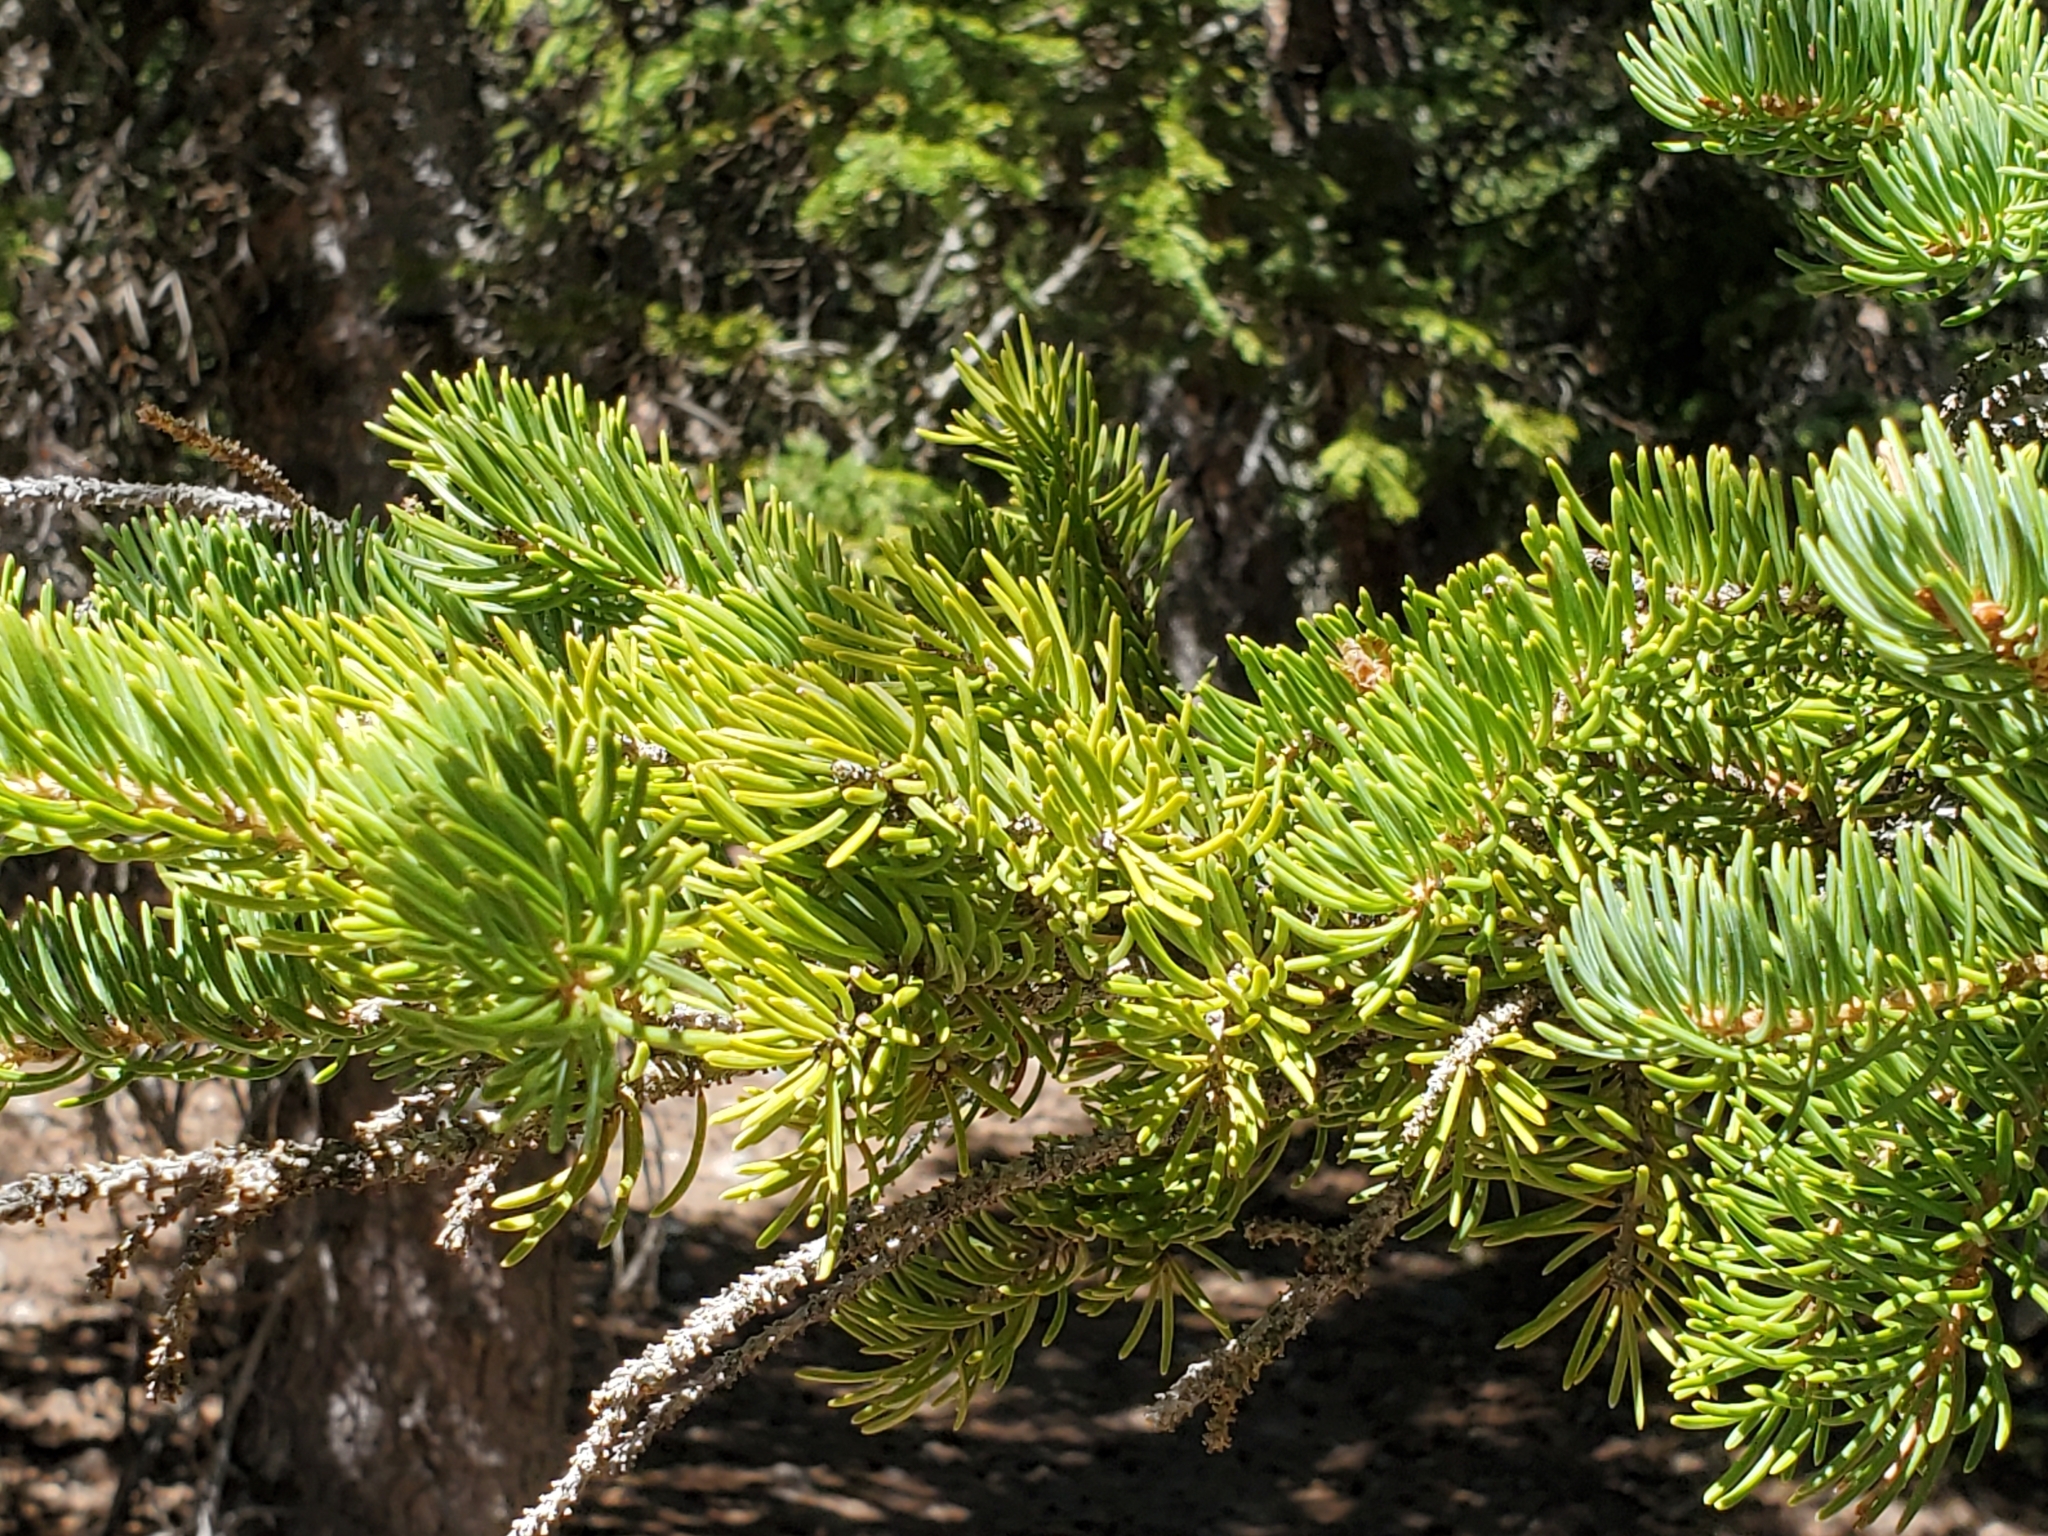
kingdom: Plantae
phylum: Tracheophyta
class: Pinopsida
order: Pinales
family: Pinaceae
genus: Picea
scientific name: Picea engelmannii
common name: Engelmann spruce
